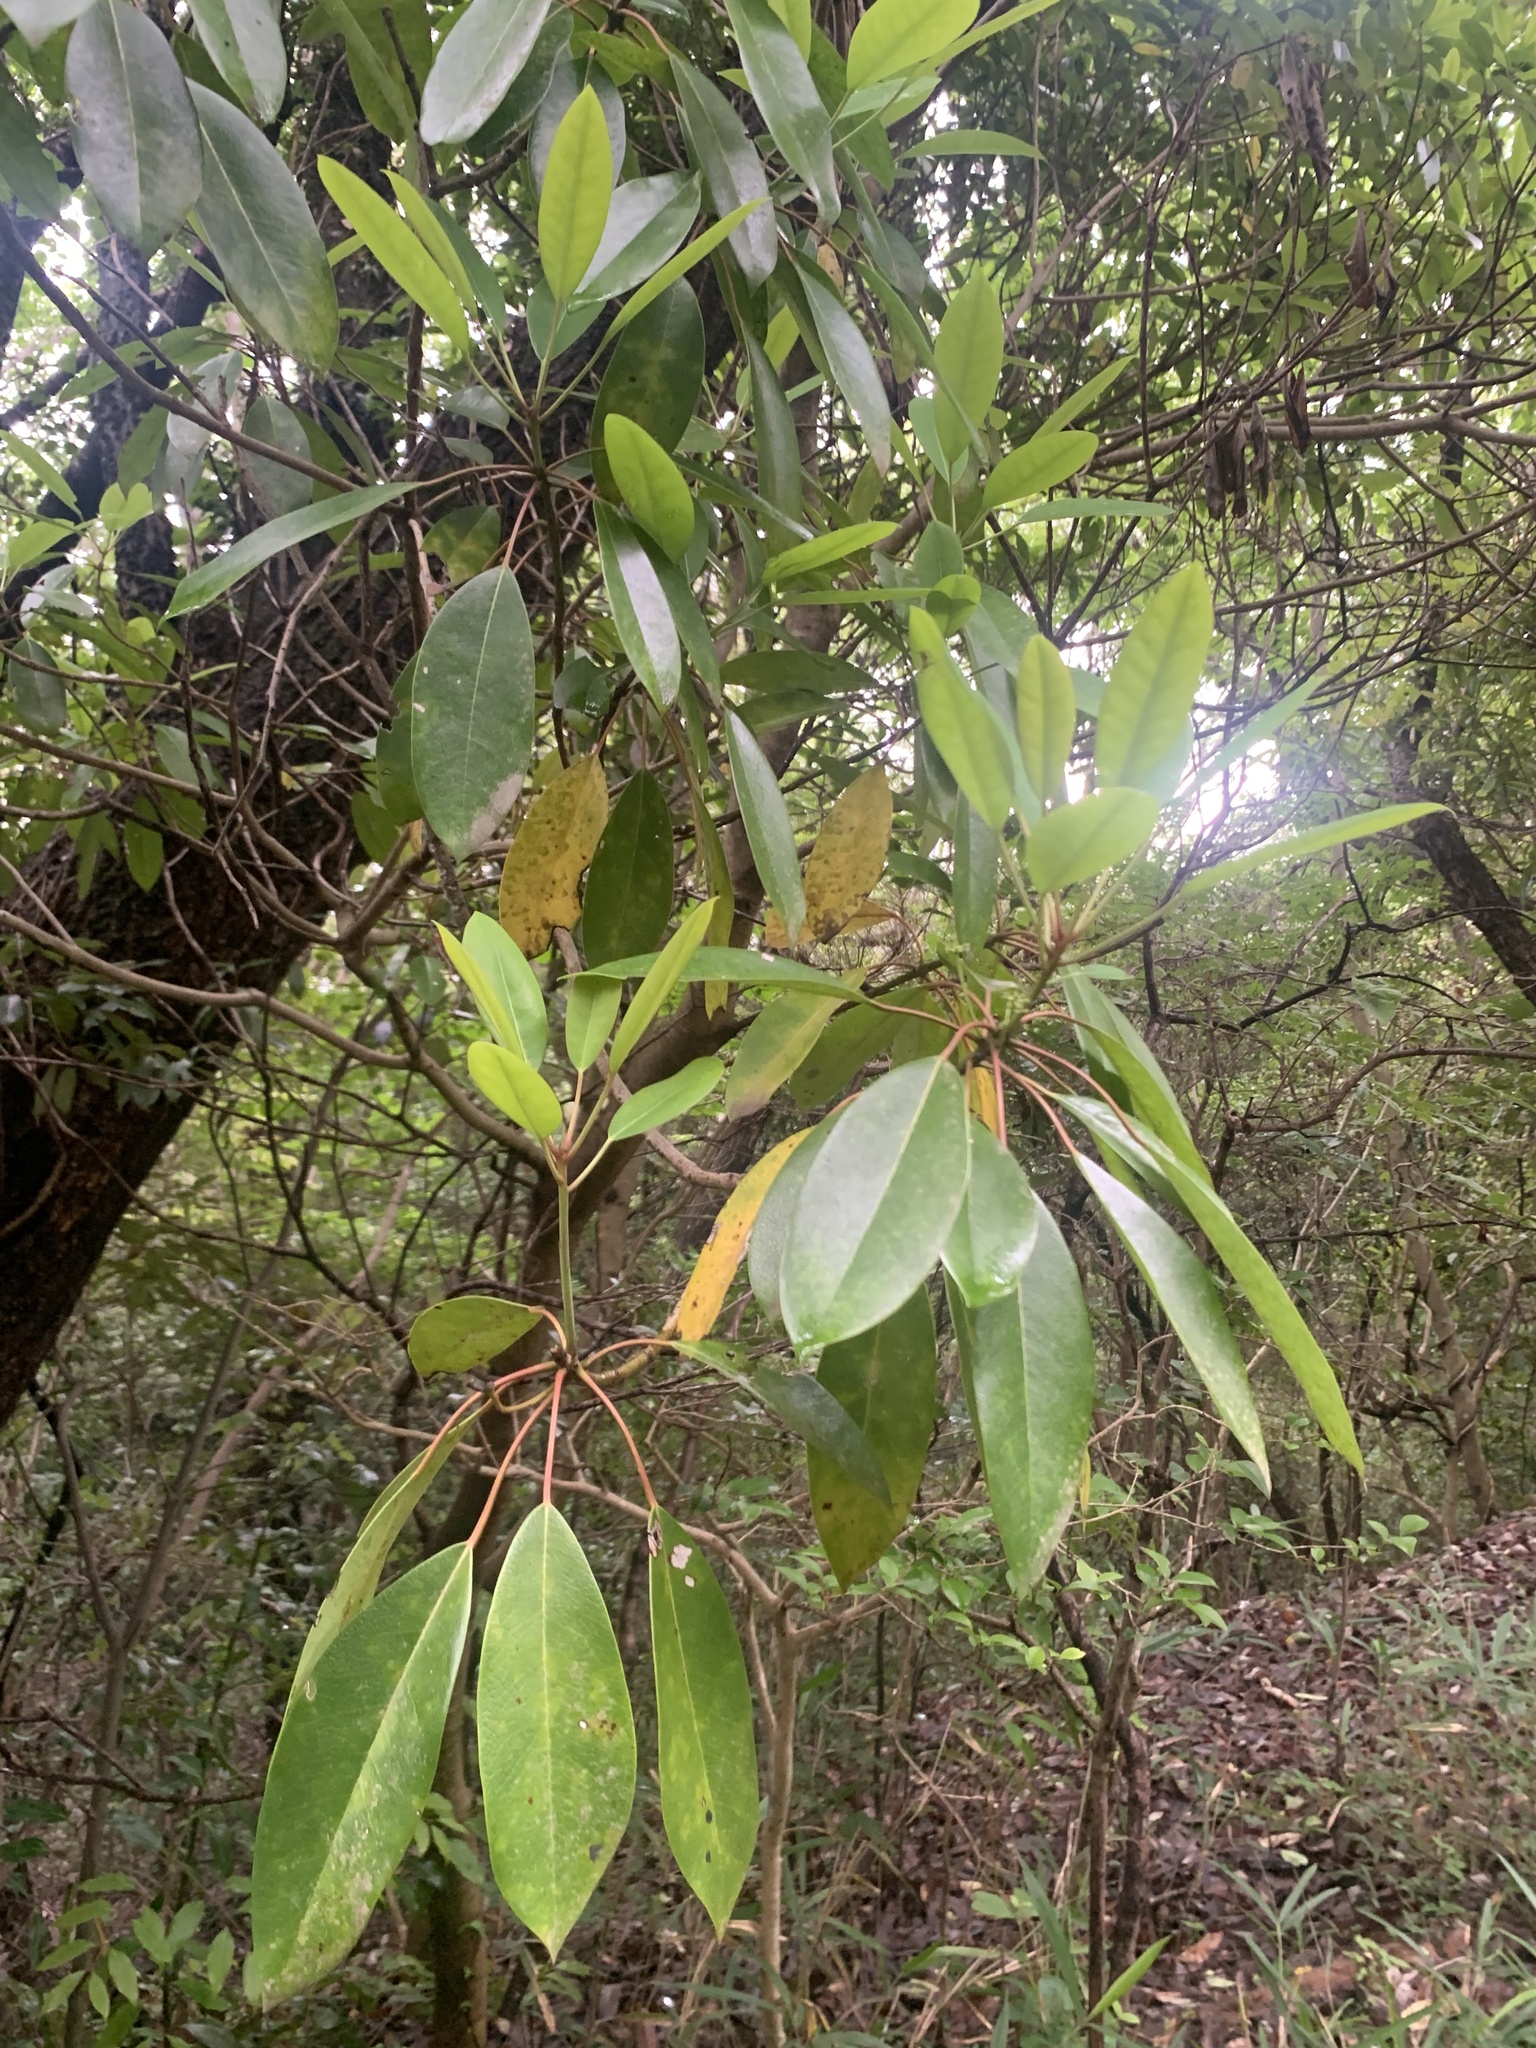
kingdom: Plantae
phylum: Tracheophyta
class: Magnoliopsida
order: Saxifragales
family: Daphniphyllaceae
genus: Daphniphyllum
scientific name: Daphniphyllum teijsmannii
